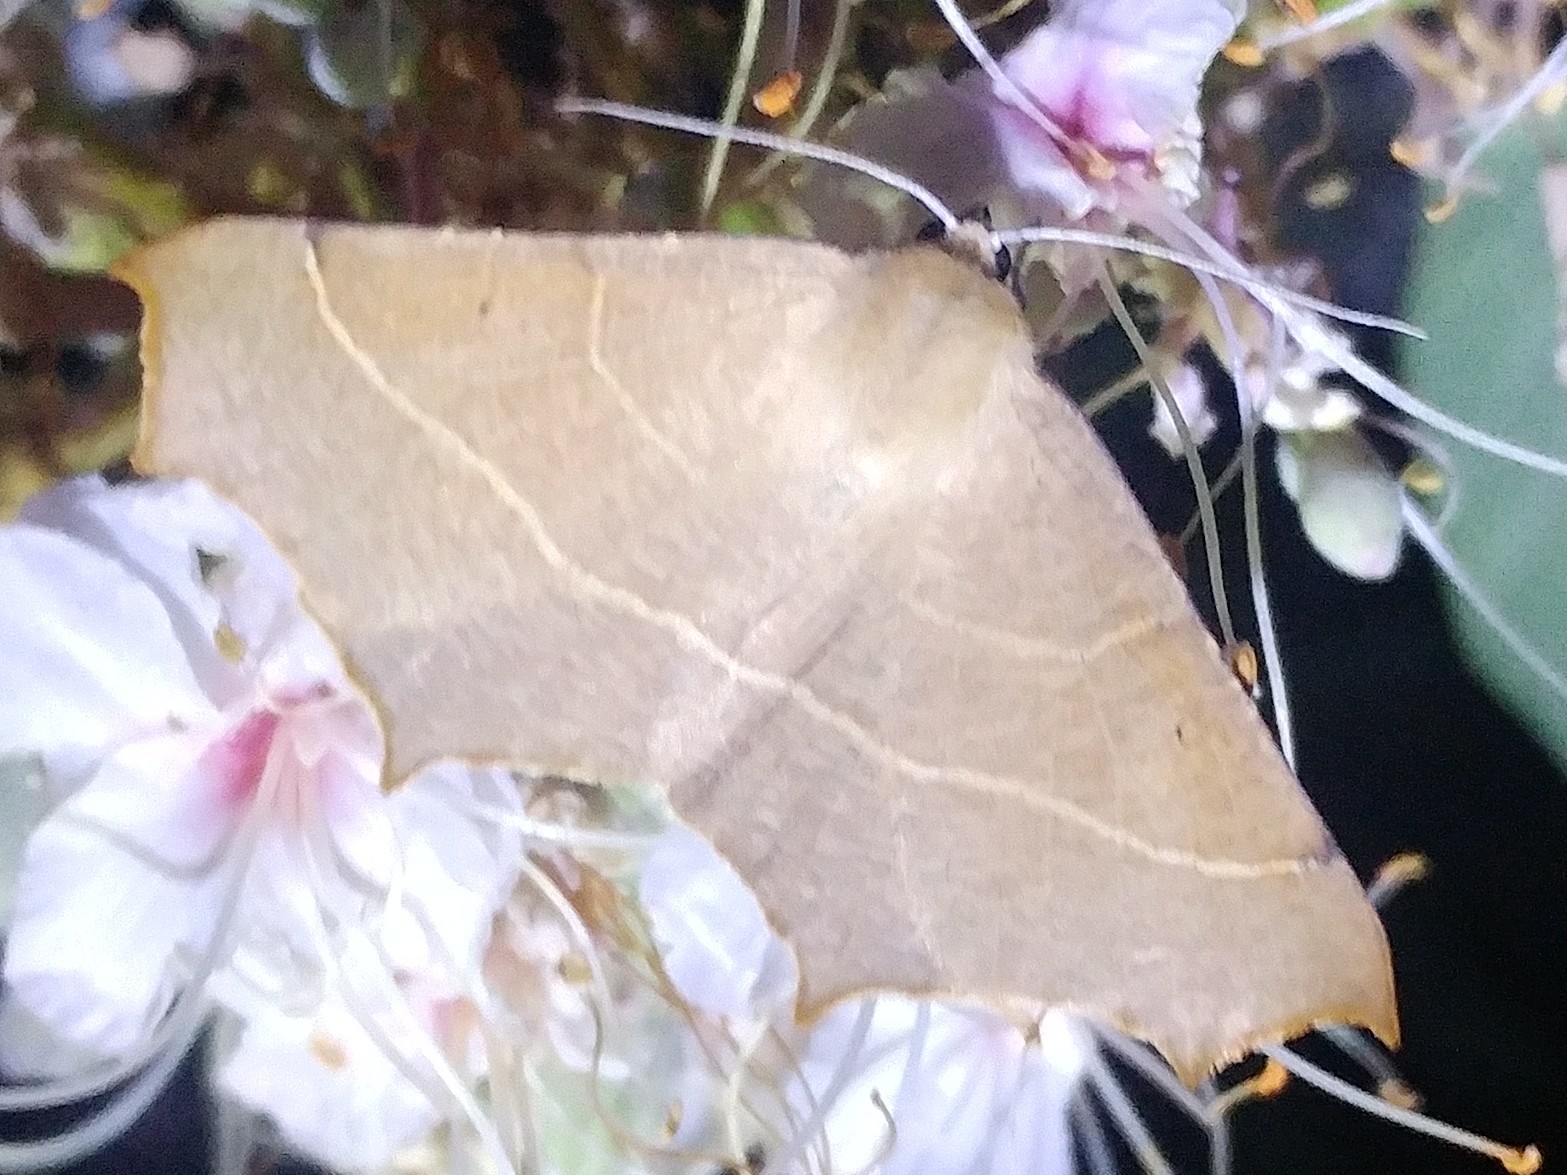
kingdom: Animalia
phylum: Arthropoda
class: Insecta
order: Lepidoptera
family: Geometridae
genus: Tetracis
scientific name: Tetracis cervinaria
